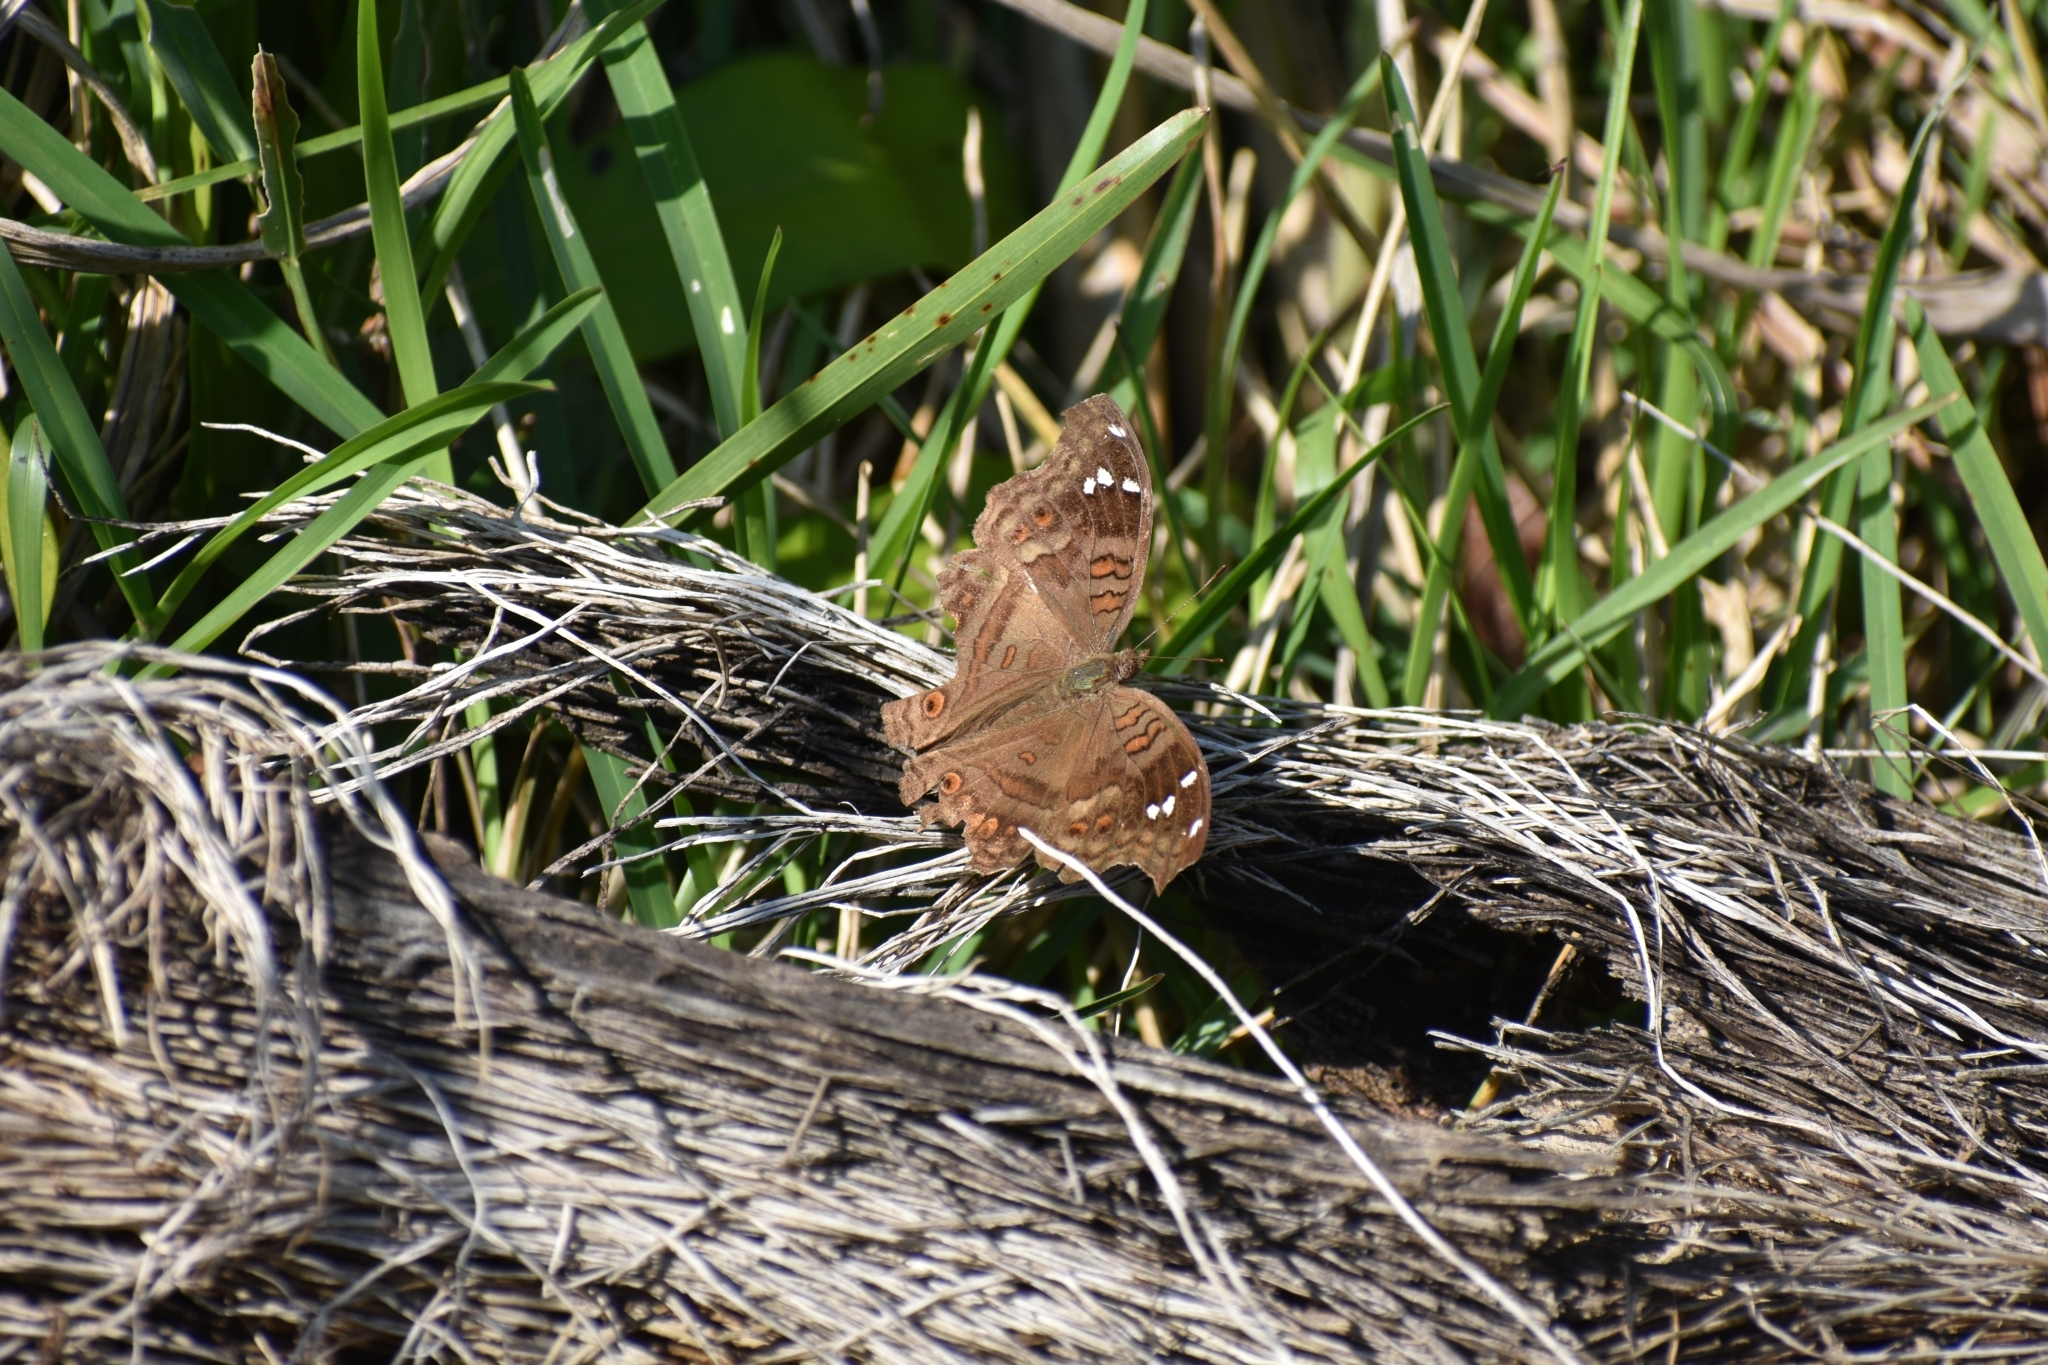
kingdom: Animalia
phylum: Arthropoda
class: Insecta
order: Lepidoptera
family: Nymphalidae
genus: Junonia
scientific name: Junonia natalica
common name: Brown pansy
